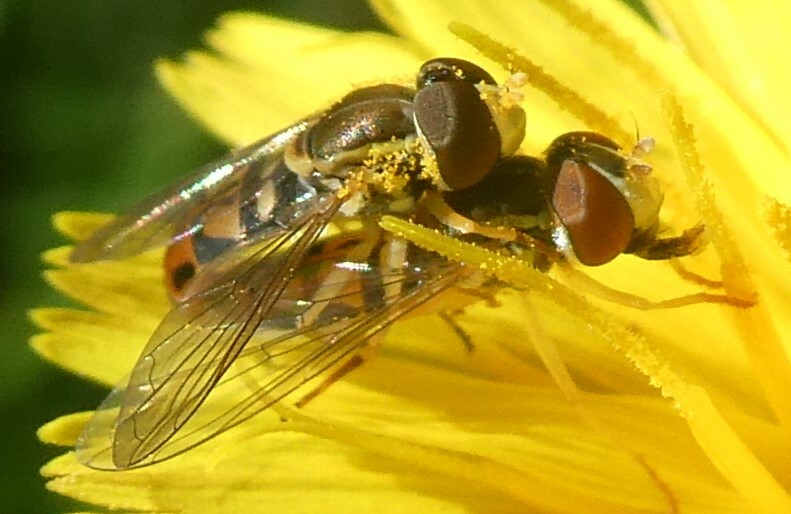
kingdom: Animalia
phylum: Arthropoda
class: Insecta
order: Diptera
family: Syrphidae
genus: Toxomerus
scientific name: Toxomerus marginatus
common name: Syrphid fly
